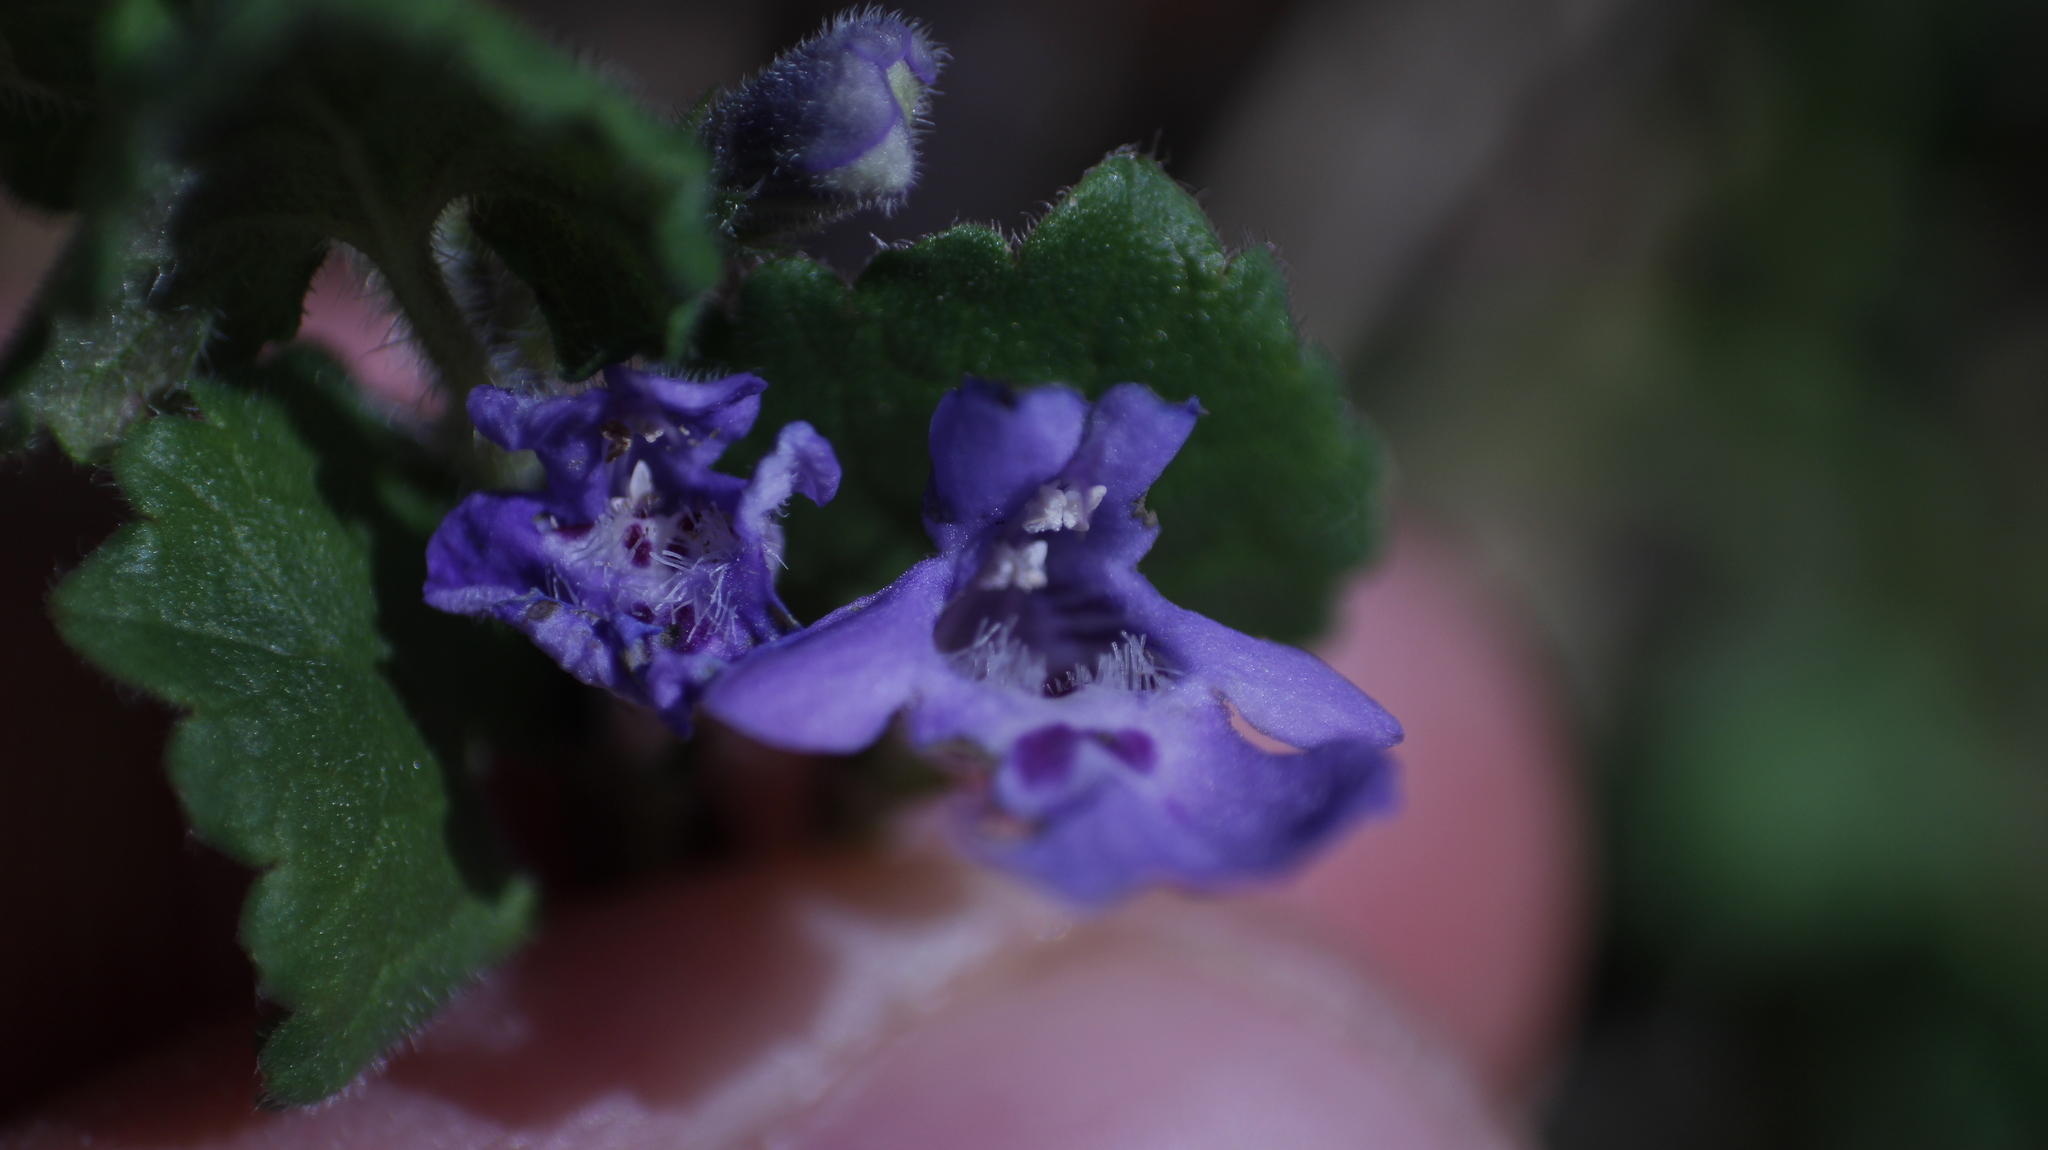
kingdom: Plantae
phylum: Tracheophyta
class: Magnoliopsida
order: Lamiales
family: Lamiaceae
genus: Glechoma
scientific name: Glechoma hederacea
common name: Ground ivy
